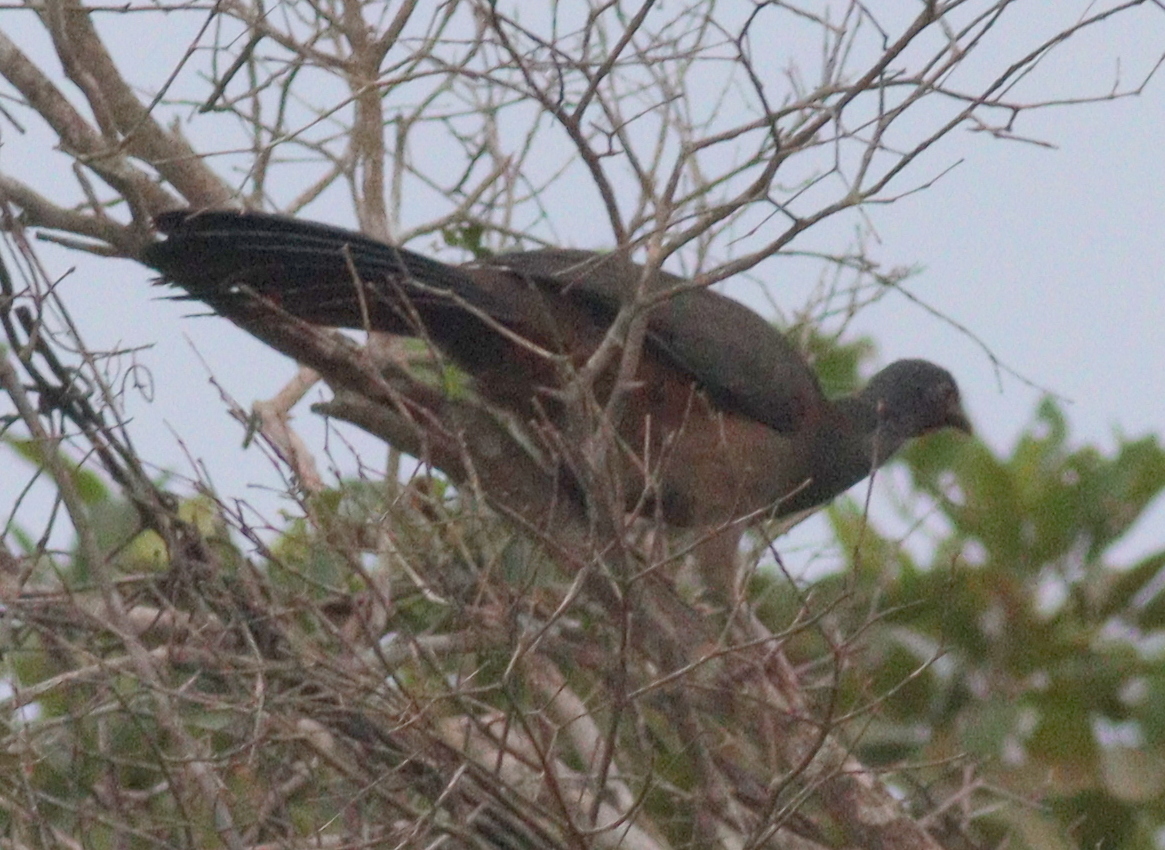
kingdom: Animalia
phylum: Chordata
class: Aves
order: Galliformes
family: Cracidae
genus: Ortalis
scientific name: Ortalis canicollis
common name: Chaco chachalaca
